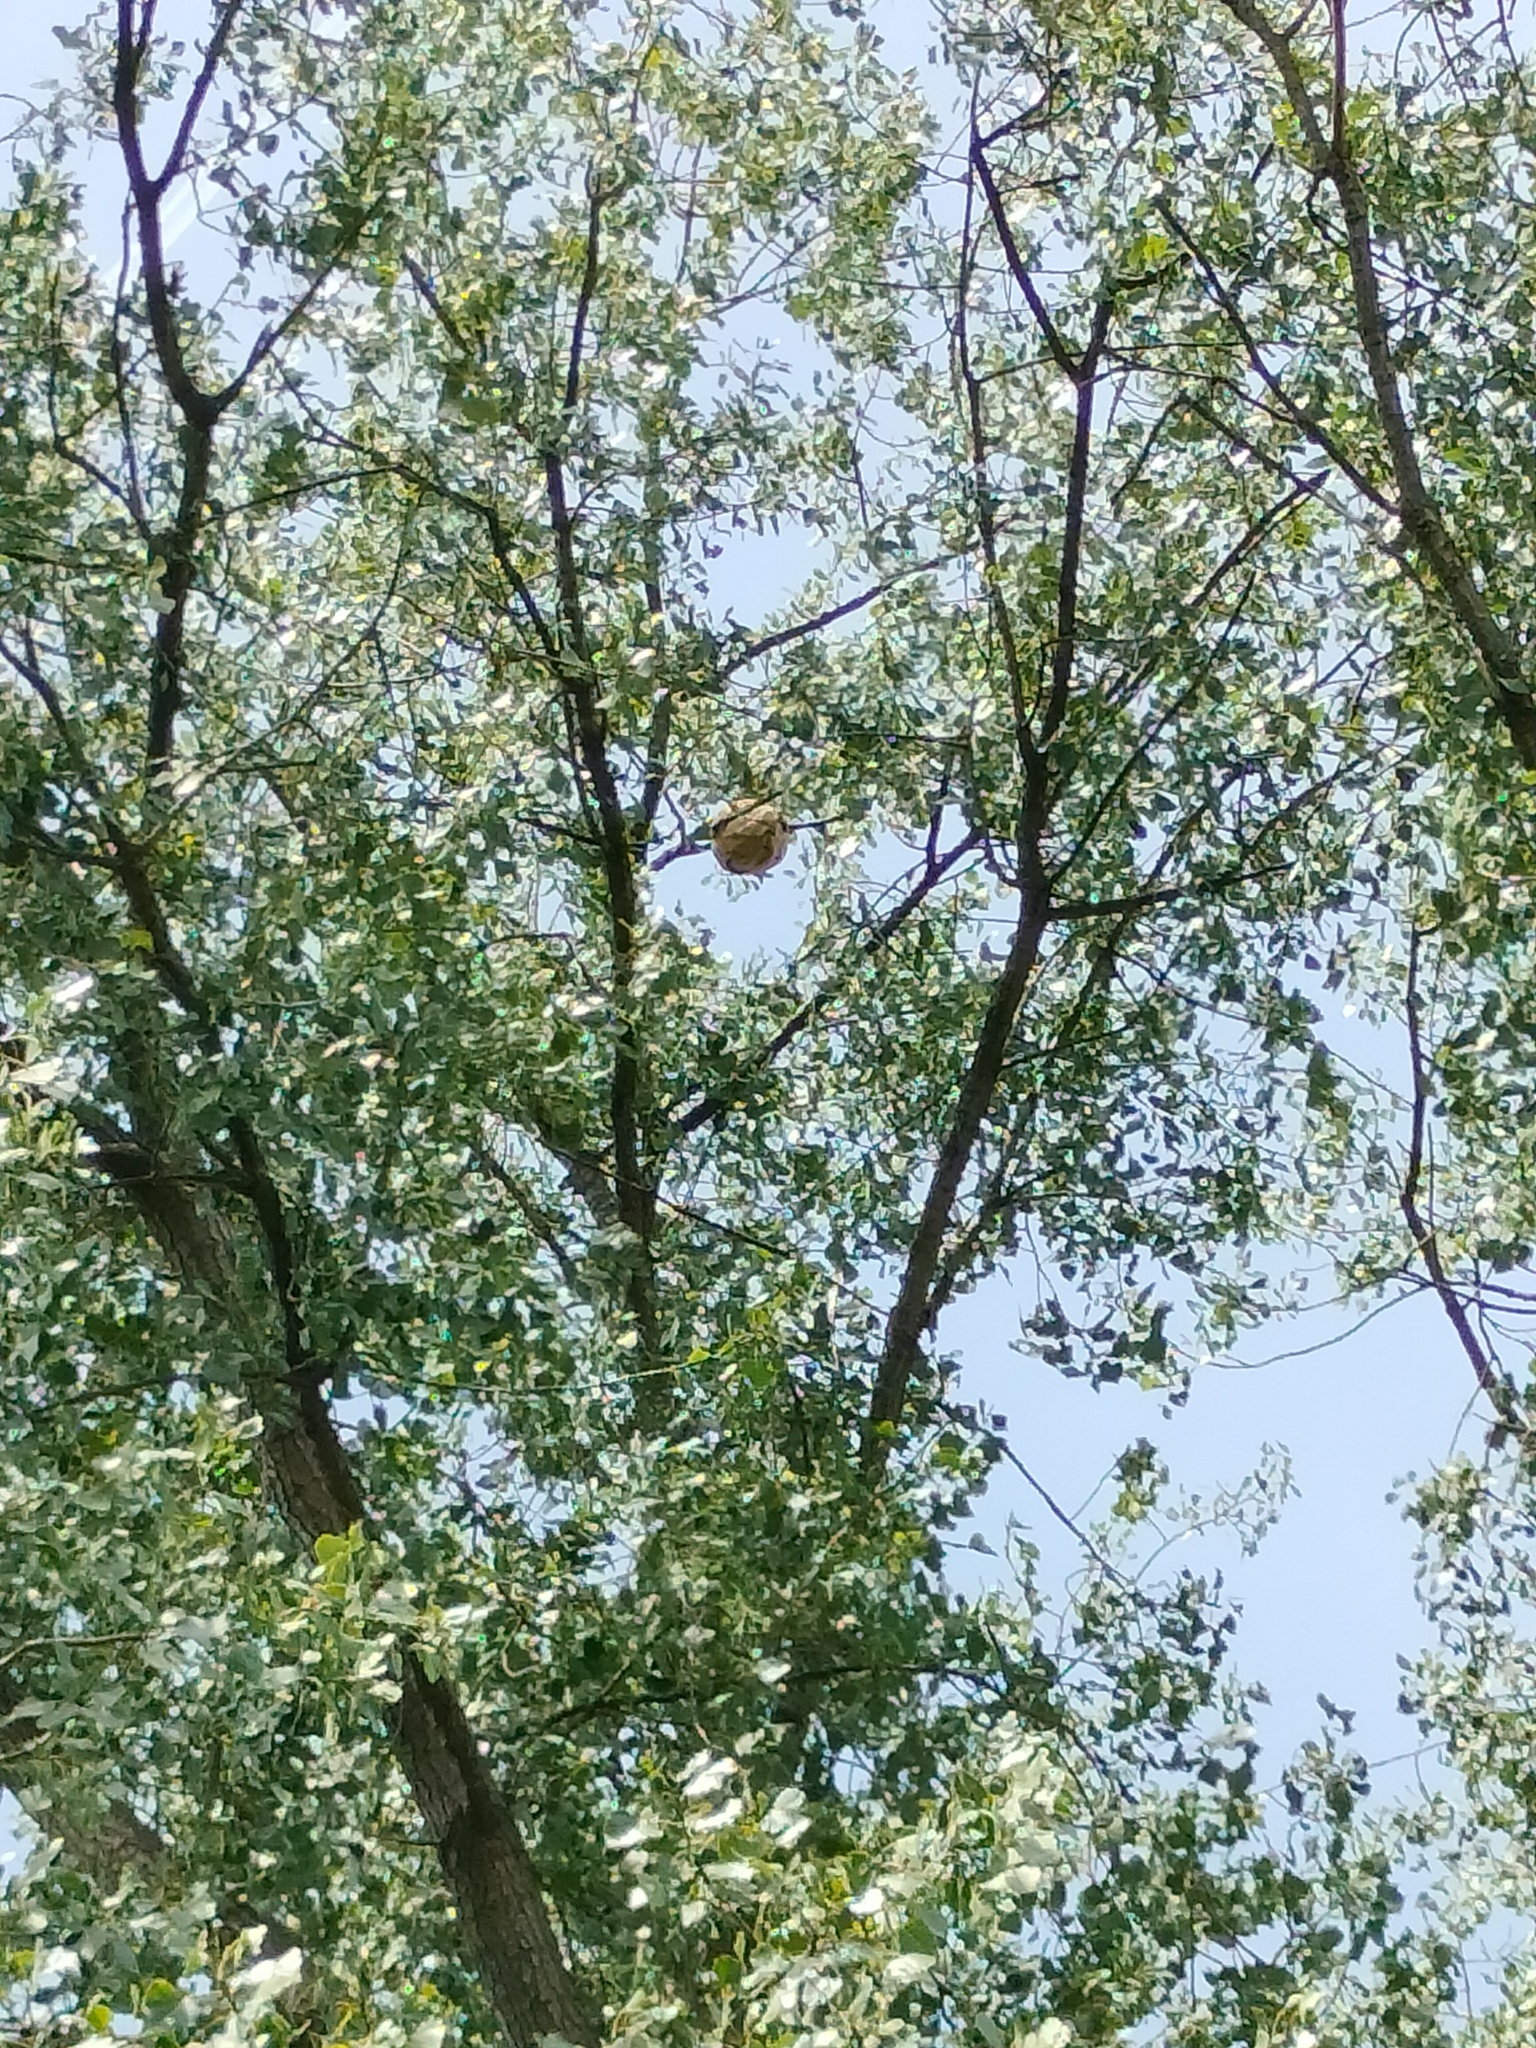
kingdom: Animalia
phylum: Arthropoda
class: Insecta
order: Hymenoptera
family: Vespidae
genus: Vespa
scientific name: Vespa velutina
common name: Asian hornet
